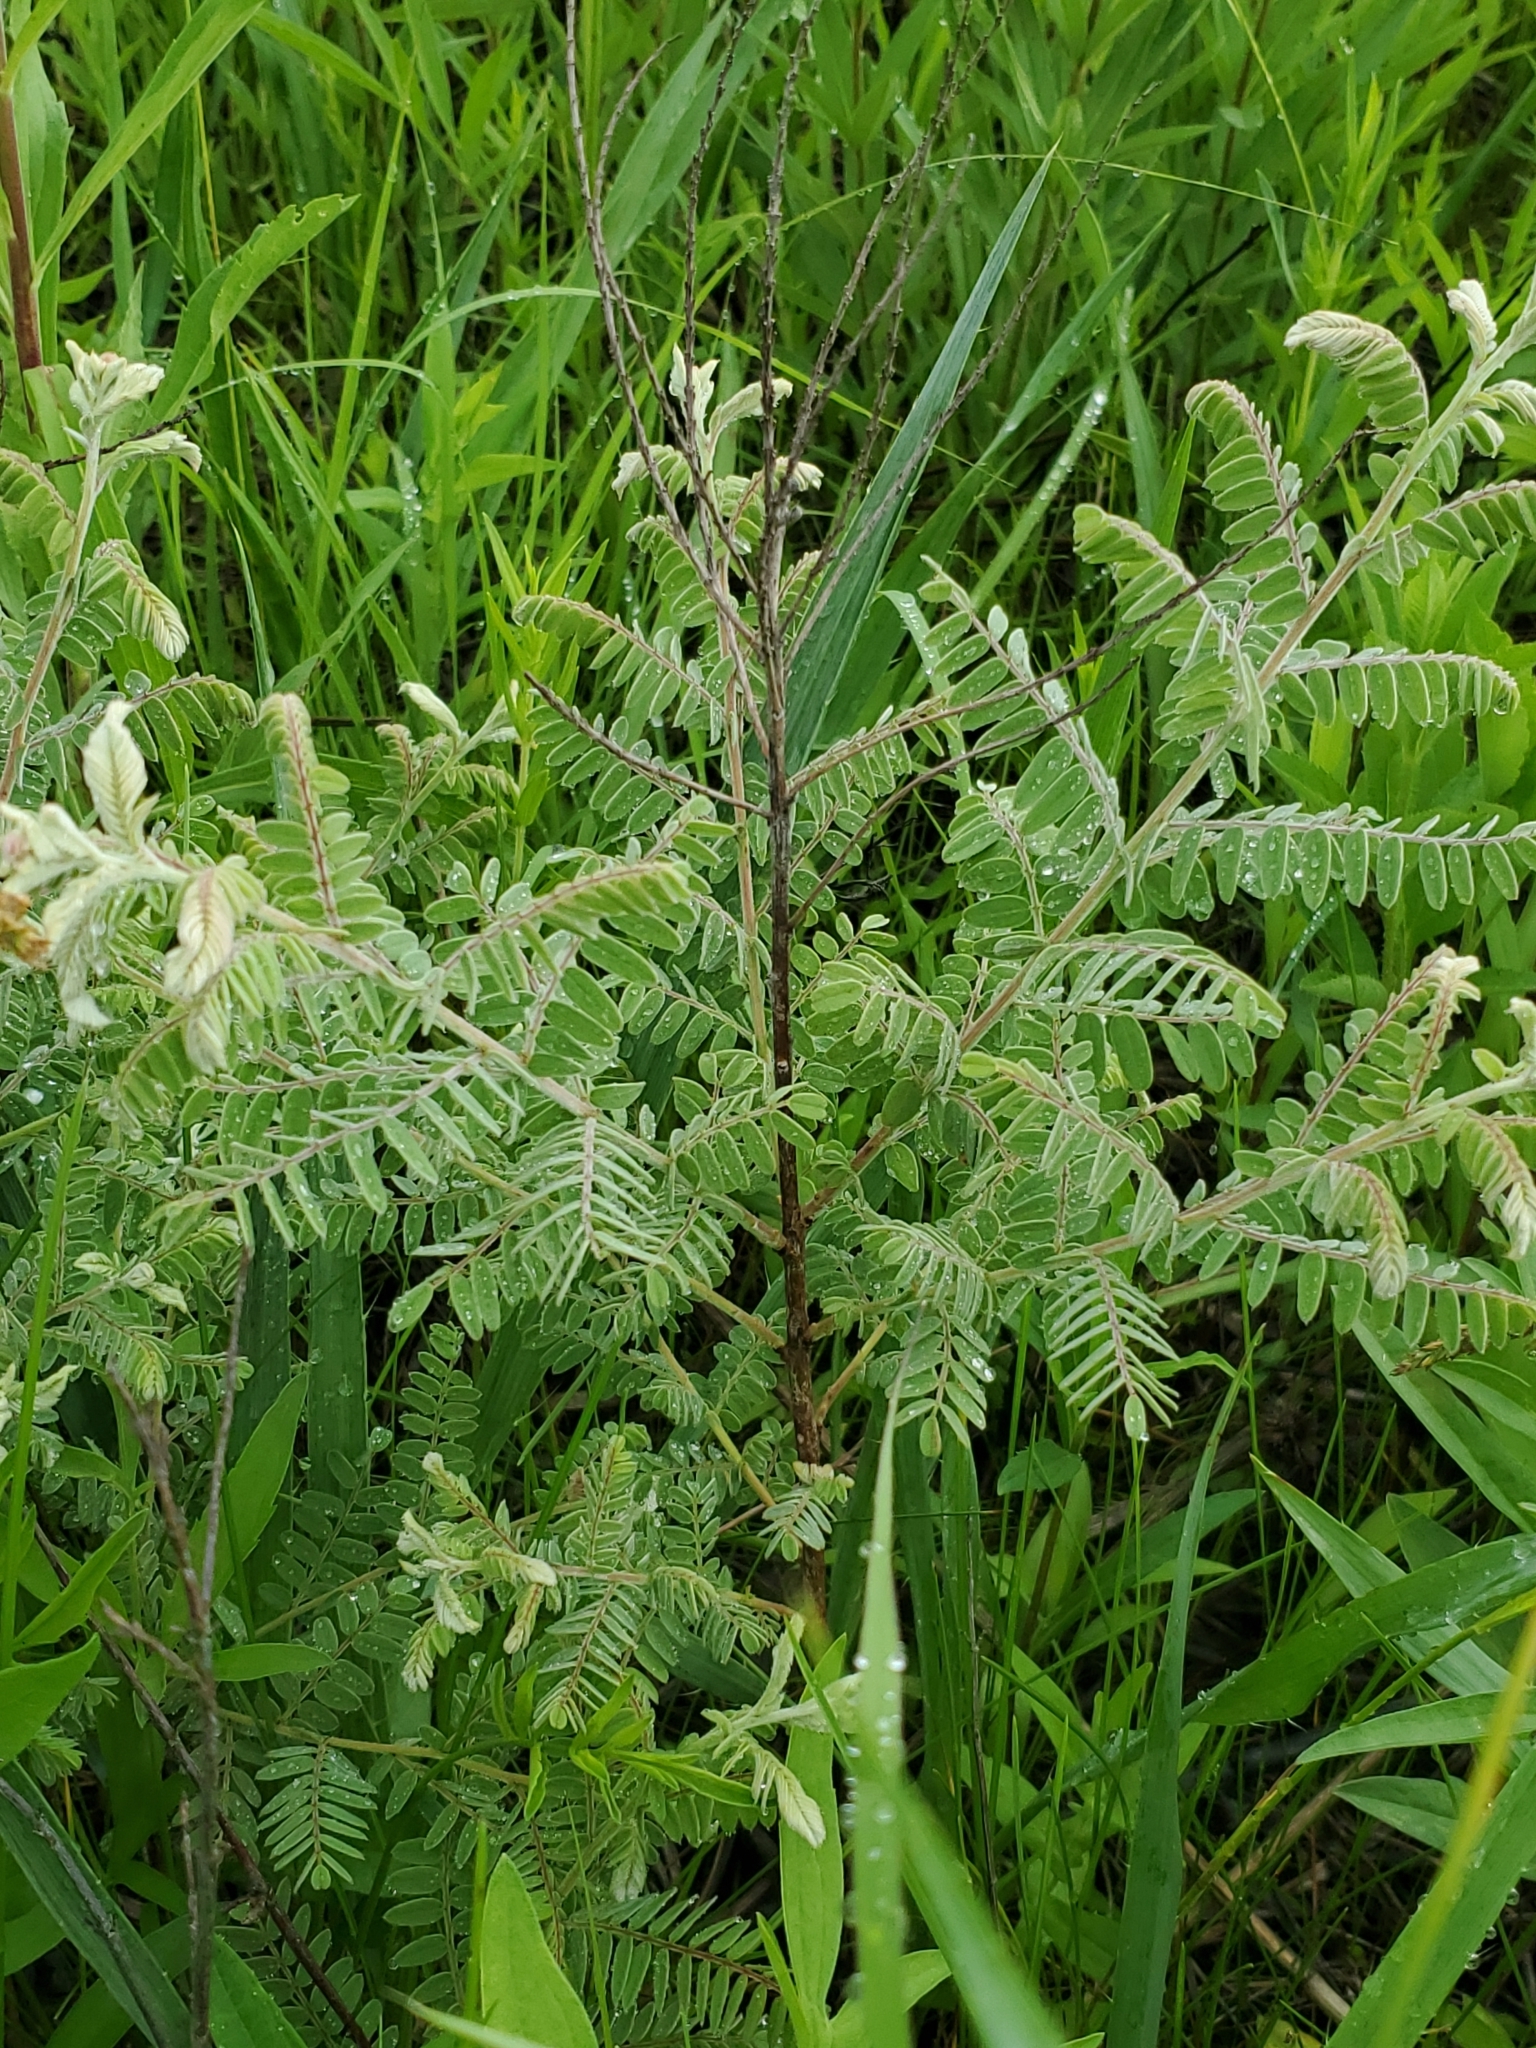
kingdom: Plantae
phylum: Tracheophyta
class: Magnoliopsida
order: Fabales
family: Fabaceae
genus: Amorpha
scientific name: Amorpha canescens
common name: Leadplant
